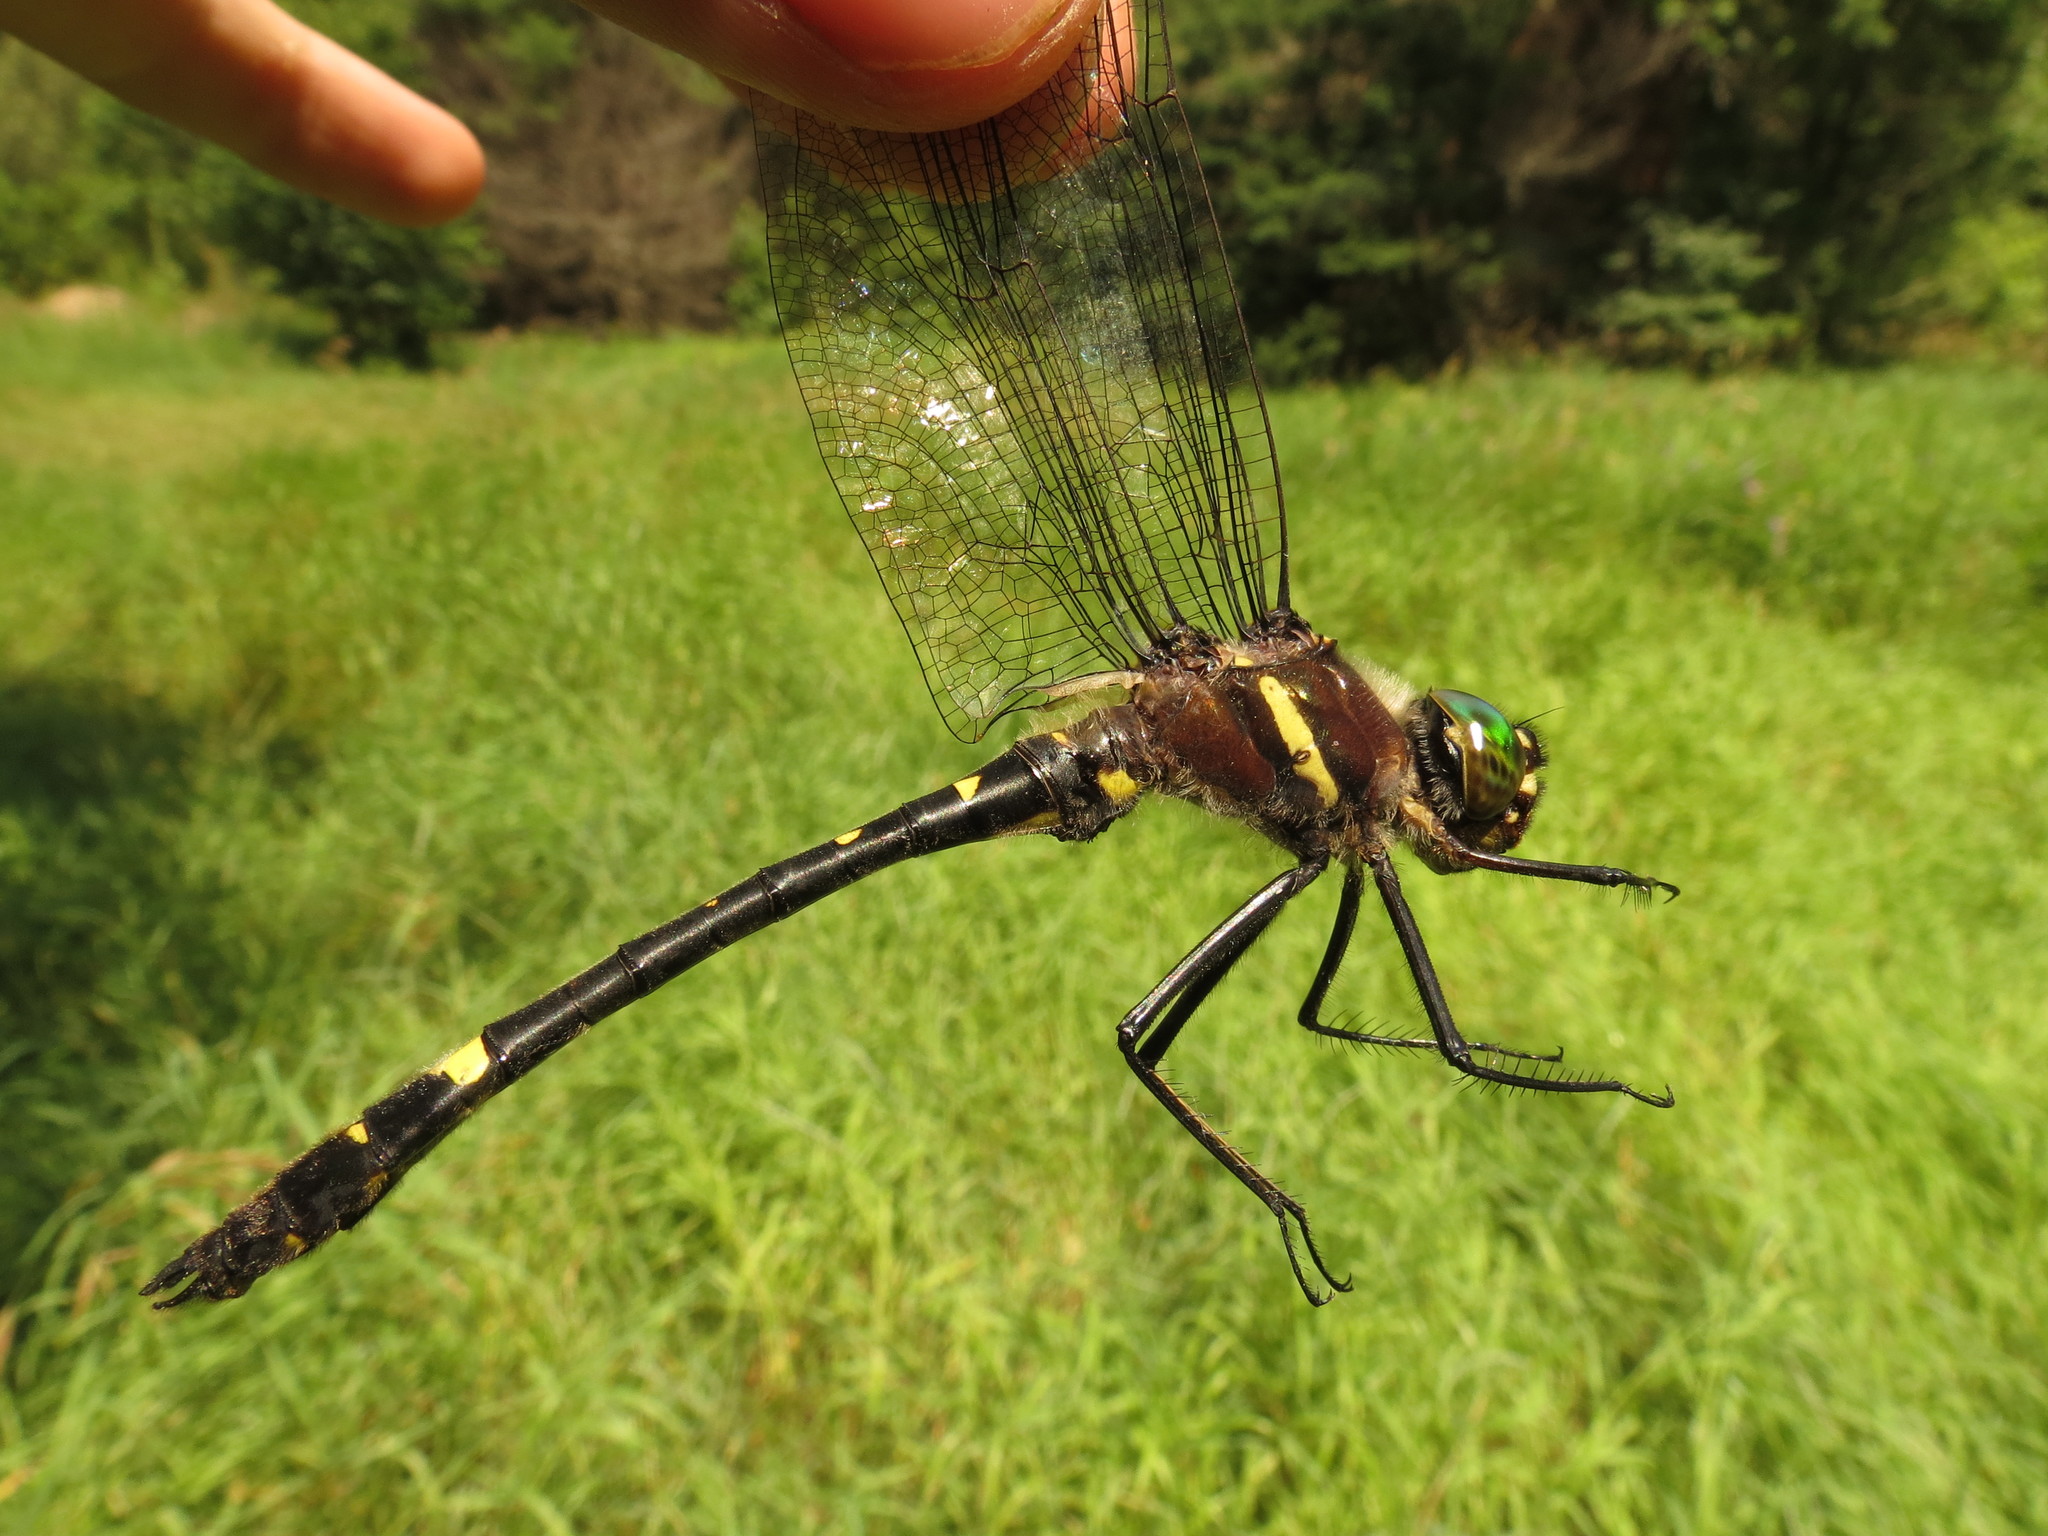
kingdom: Animalia
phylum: Arthropoda
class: Insecta
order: Odonata
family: Macromiidae
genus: Macromia
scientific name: Macromia illinoiensis
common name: Swift river cruiser
